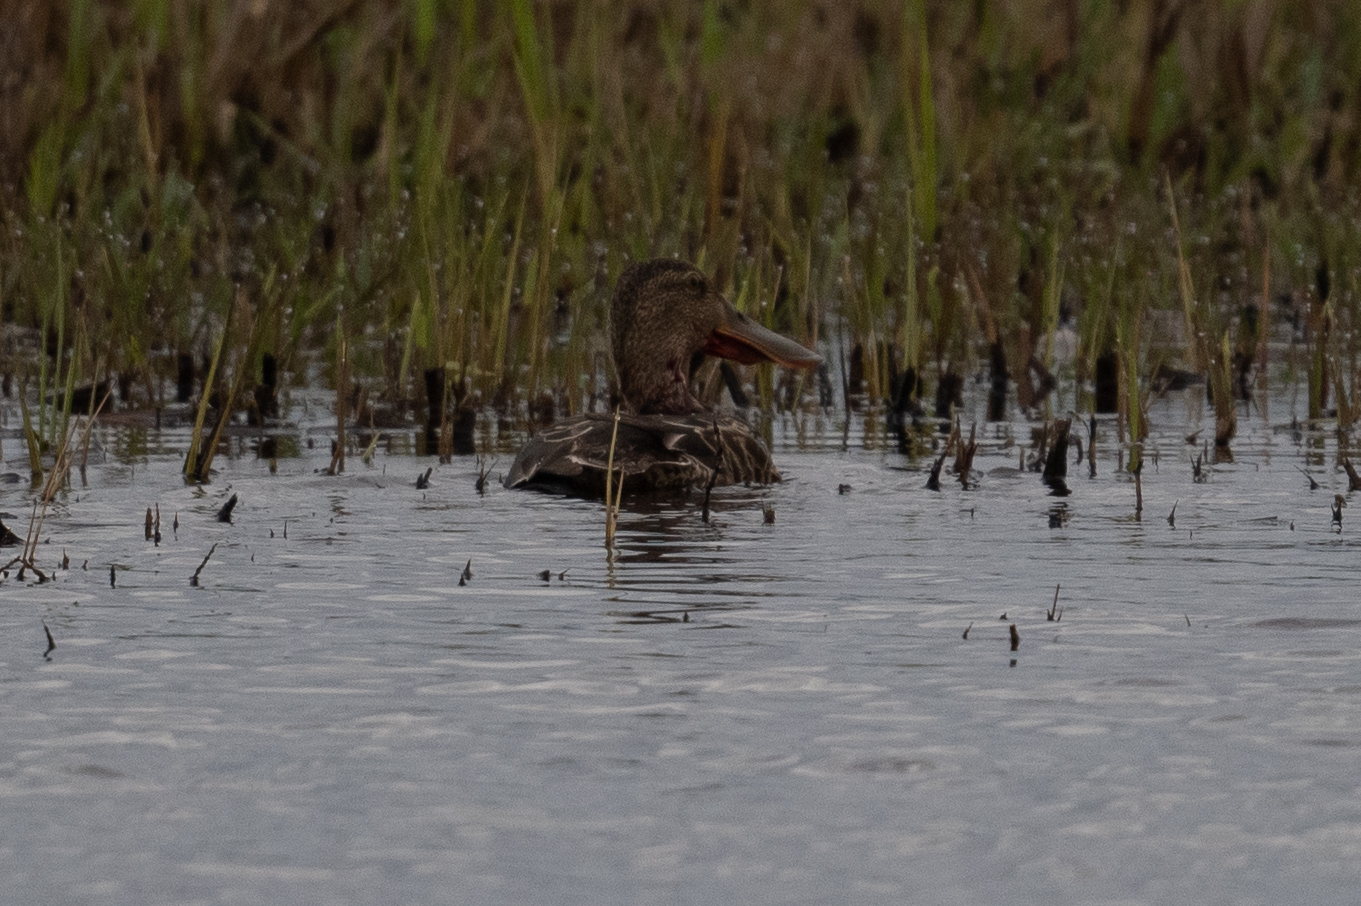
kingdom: Animalia
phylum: Chordata
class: Aves
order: Anseriformes
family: Anatidae
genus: Spatula
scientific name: Spatula clypeata
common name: Northern shoveler
